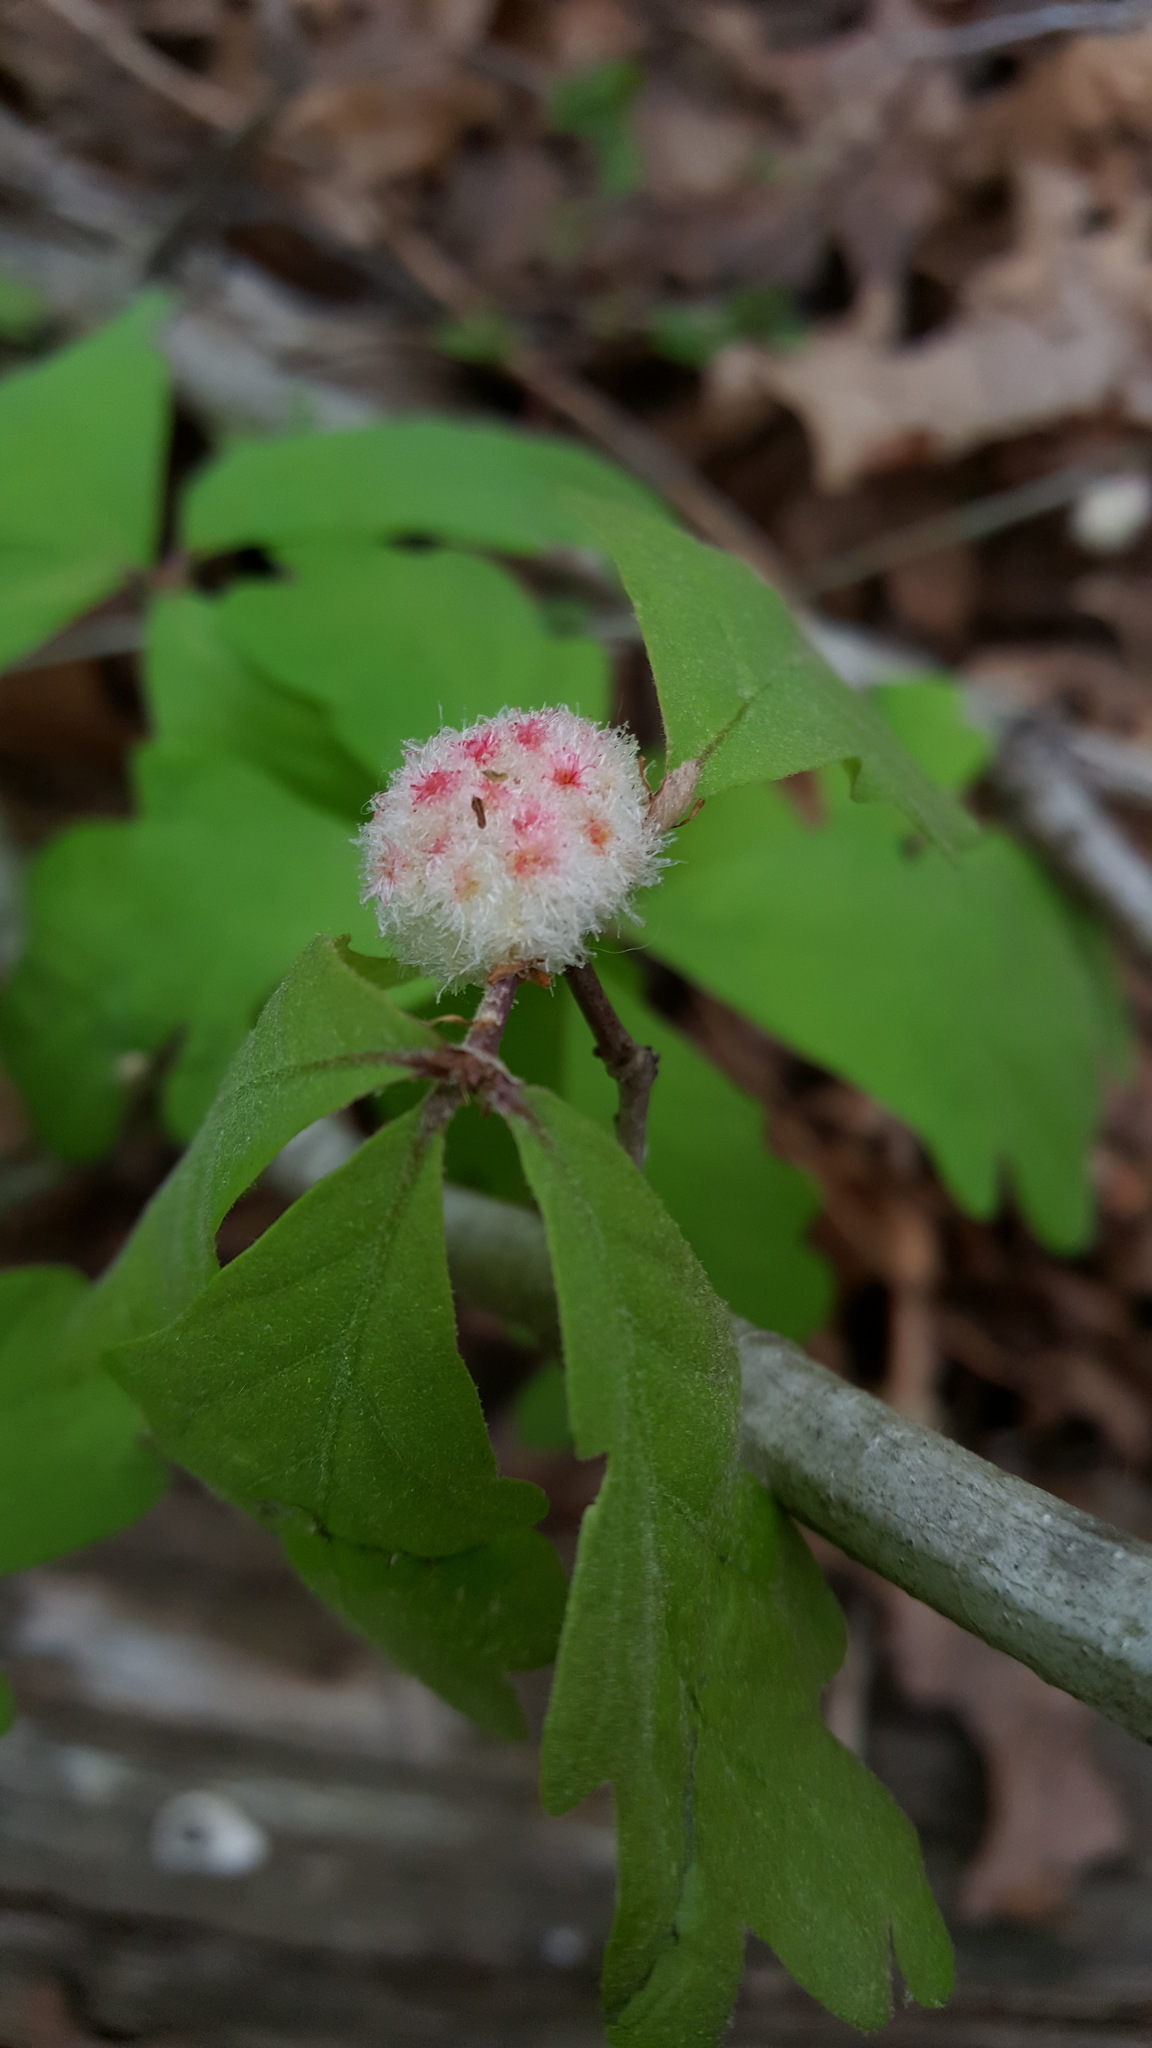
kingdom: Animalia
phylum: Arthropoda
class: Insecta
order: Hymenoptera
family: Cynipidae
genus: Callirhytis
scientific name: Callirhytis
